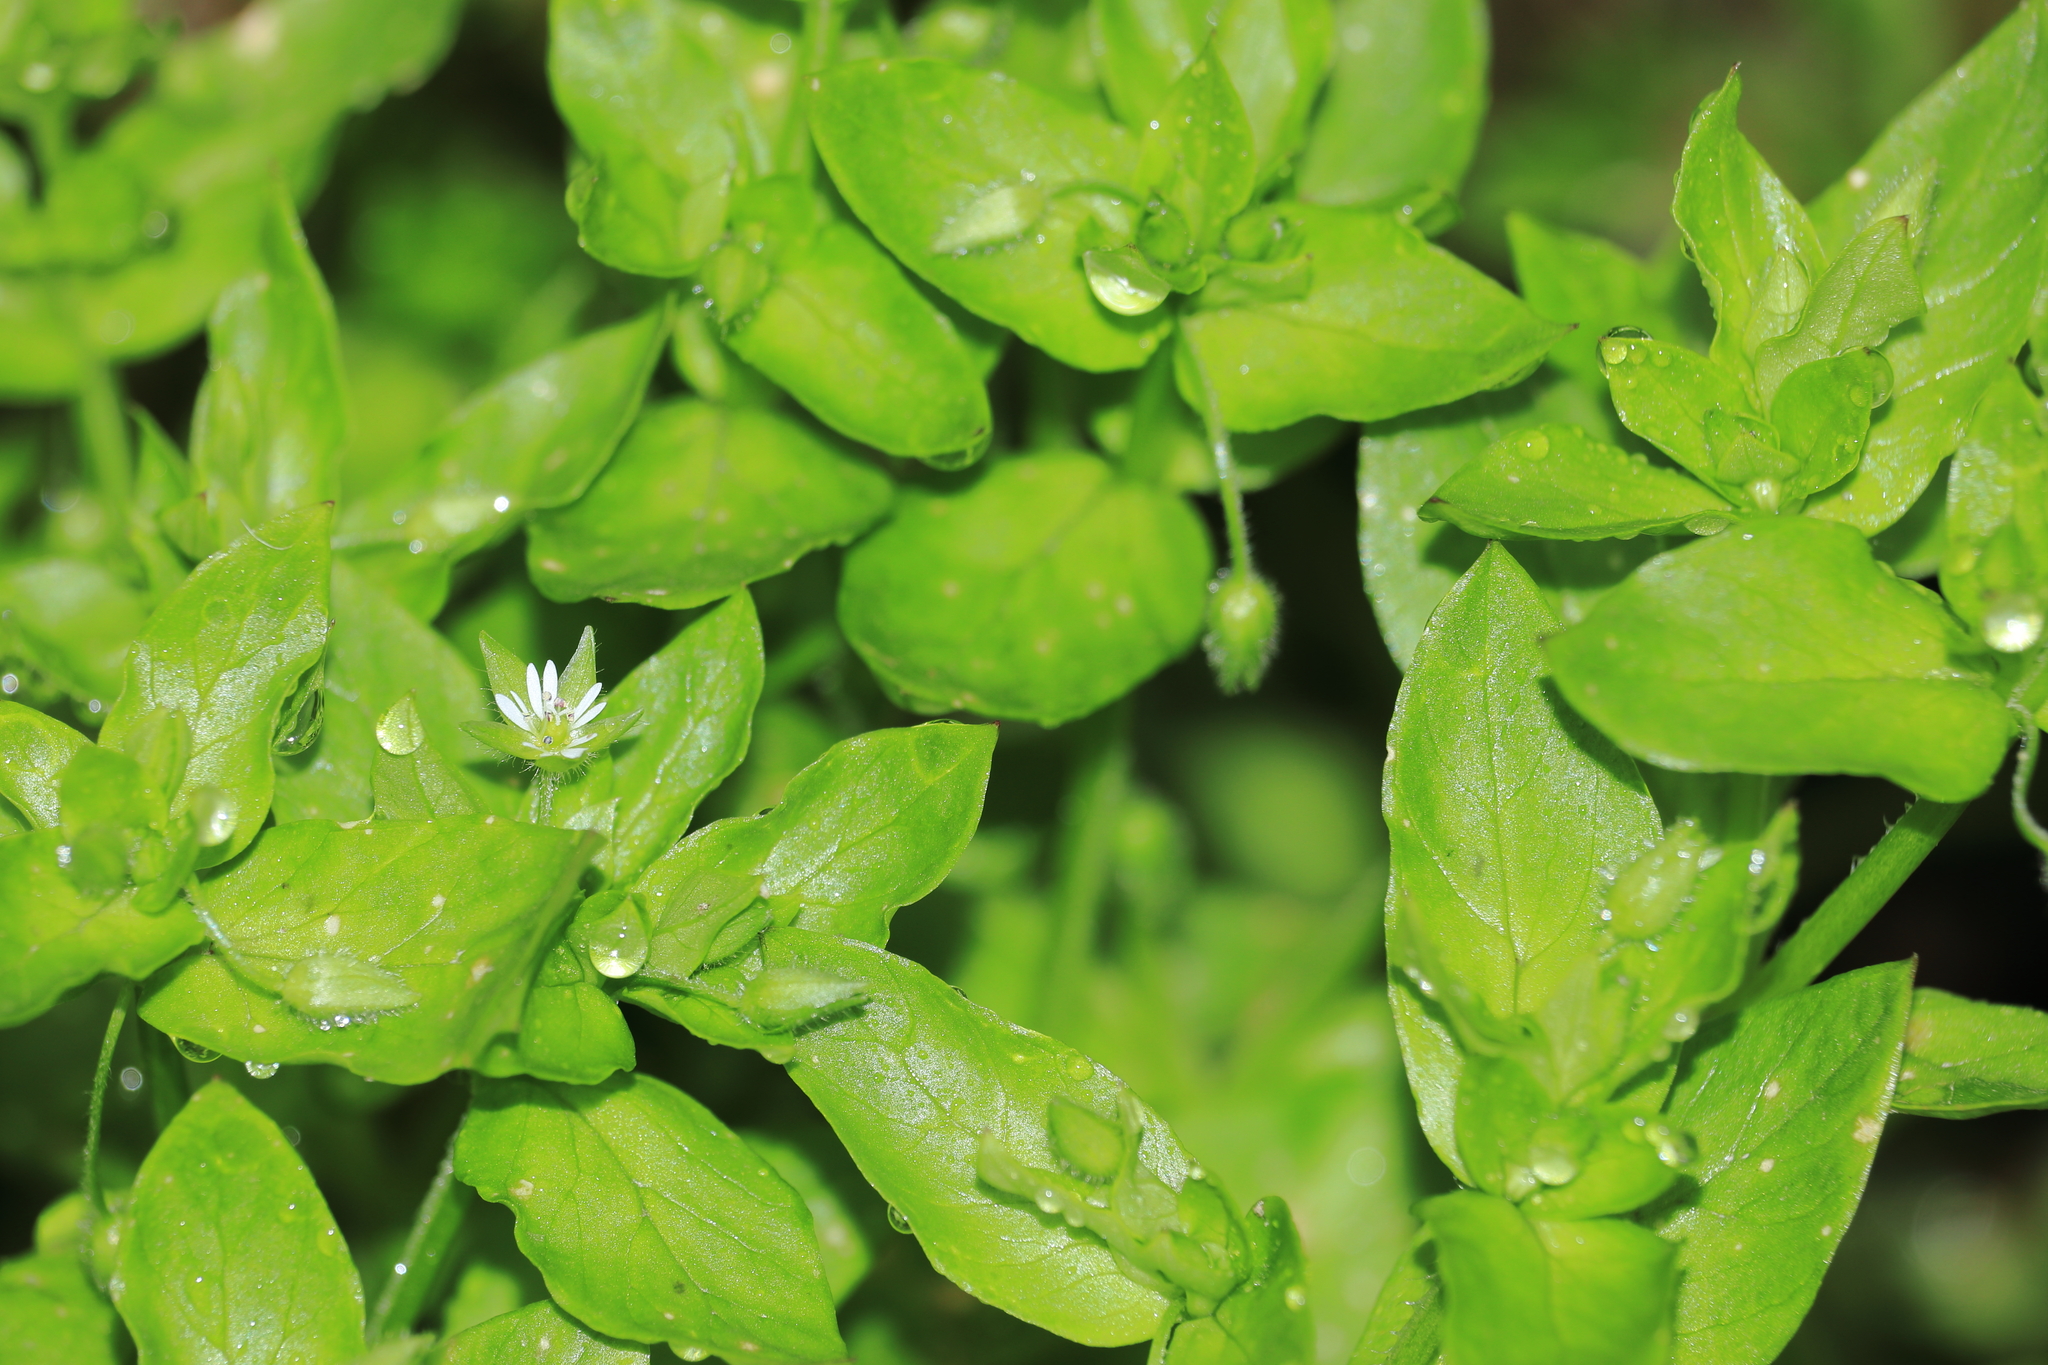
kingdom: Plantae
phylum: Tracheophyta
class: Magnoliopsida
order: Caryophyllales
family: Caryophyllaceae
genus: Stellaria
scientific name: Stellaria
